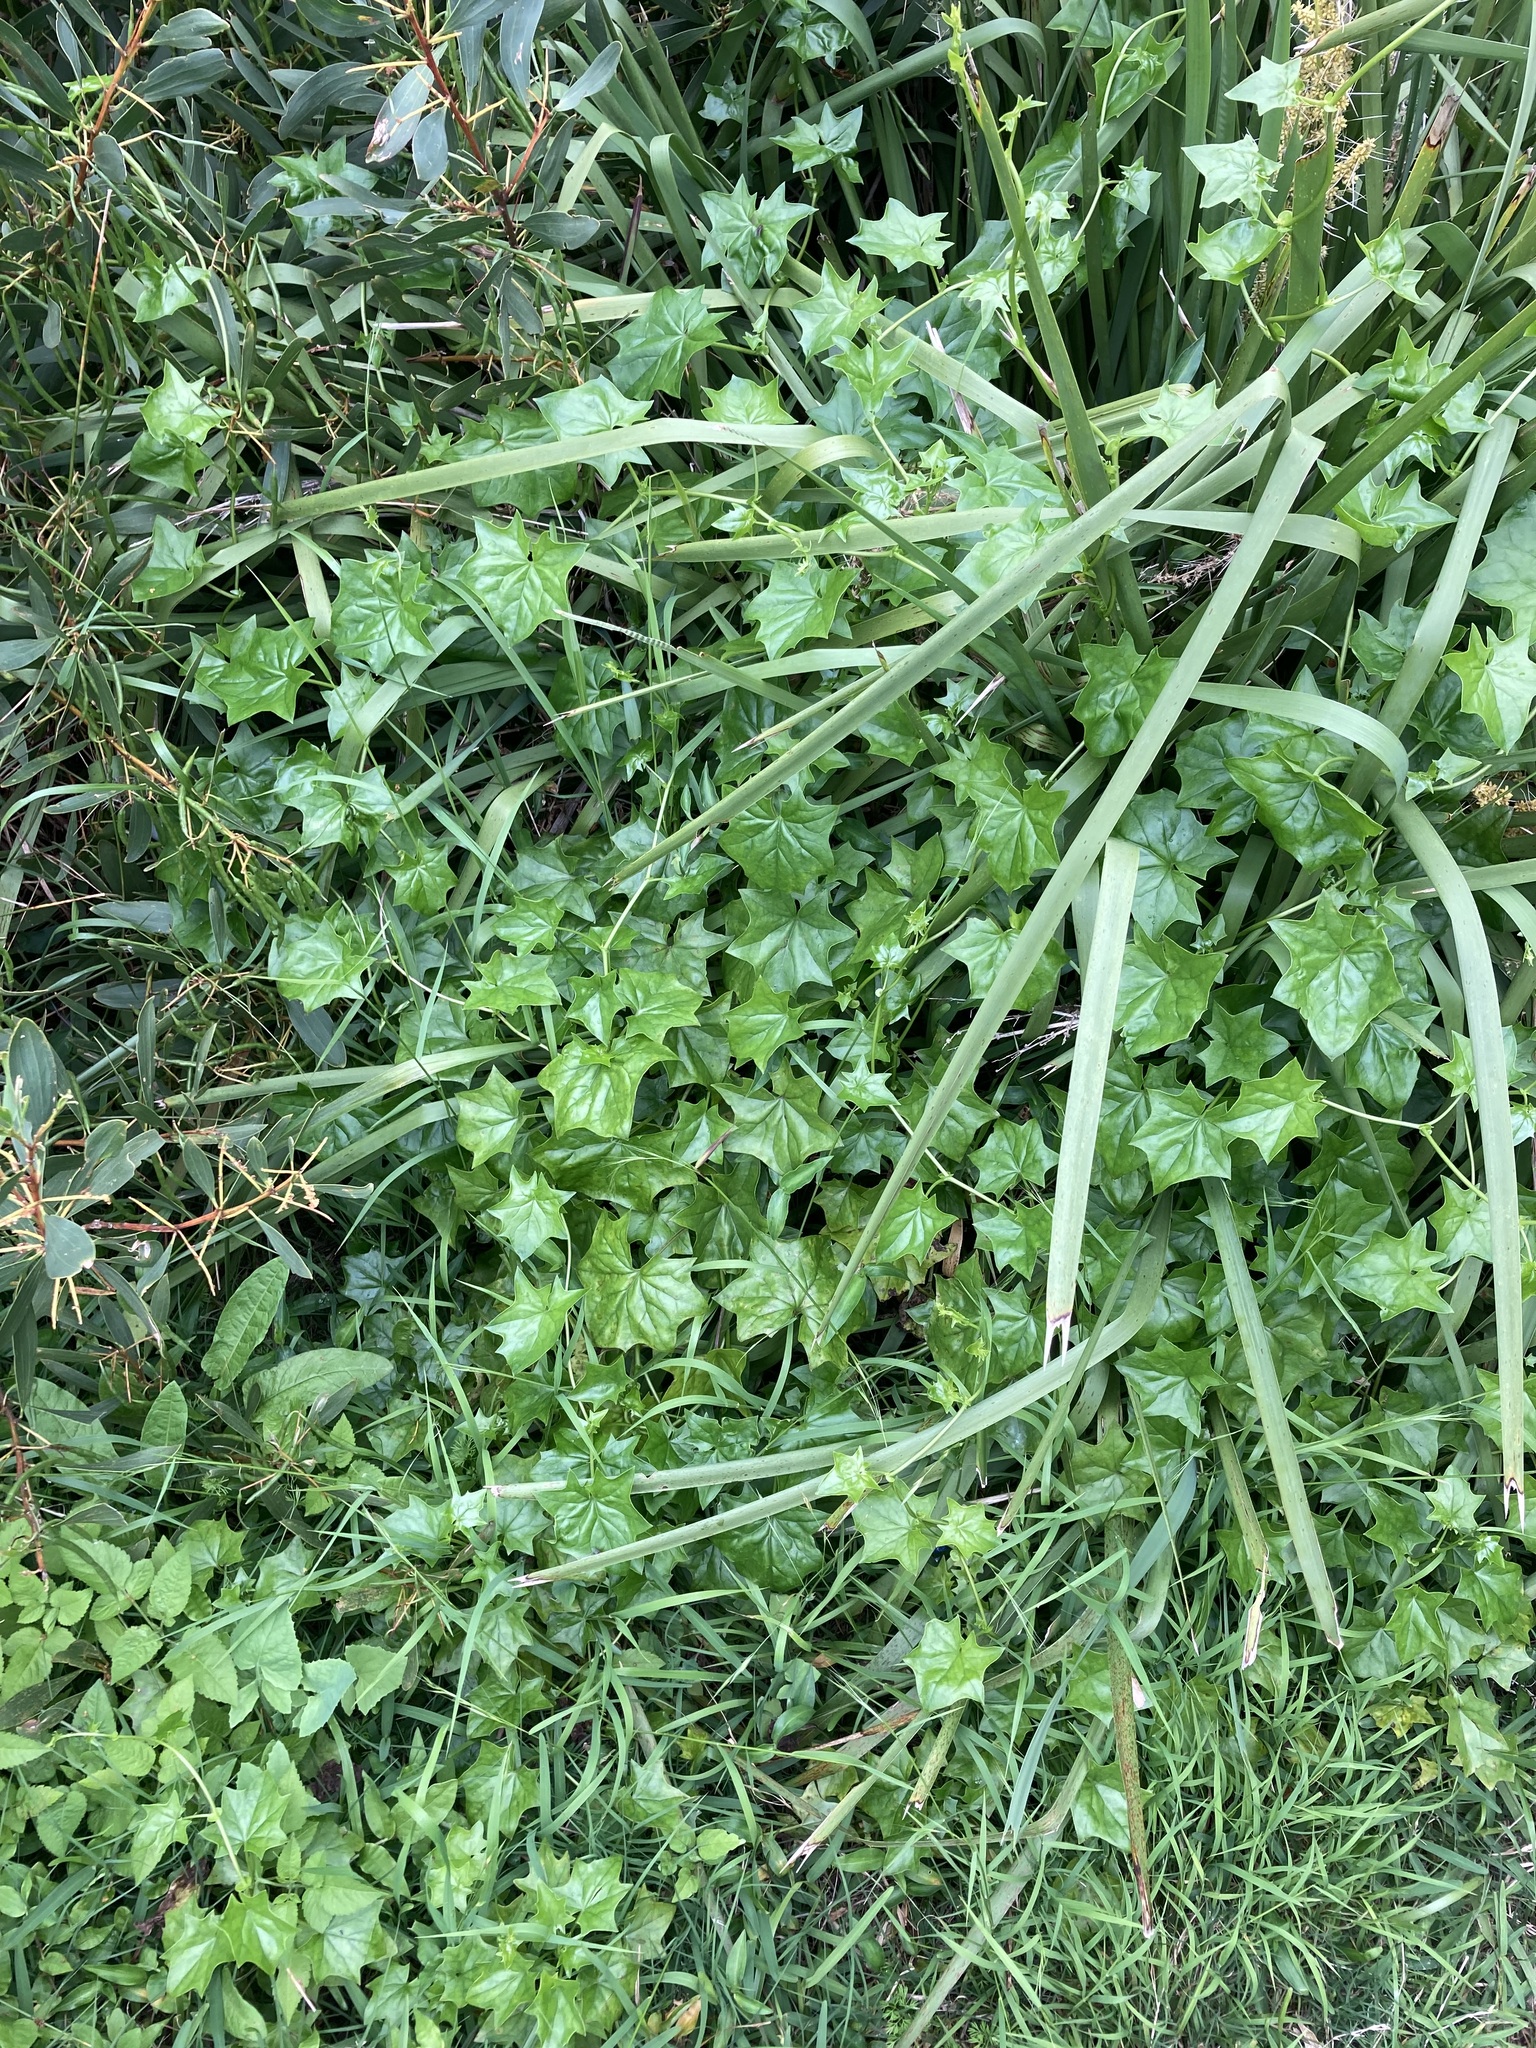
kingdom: Plantae
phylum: Tracheophyta
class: Magnoliopsida
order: Asterales
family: Asteraceae
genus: Delairea
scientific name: Delairea odorata
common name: Cape-ivy
